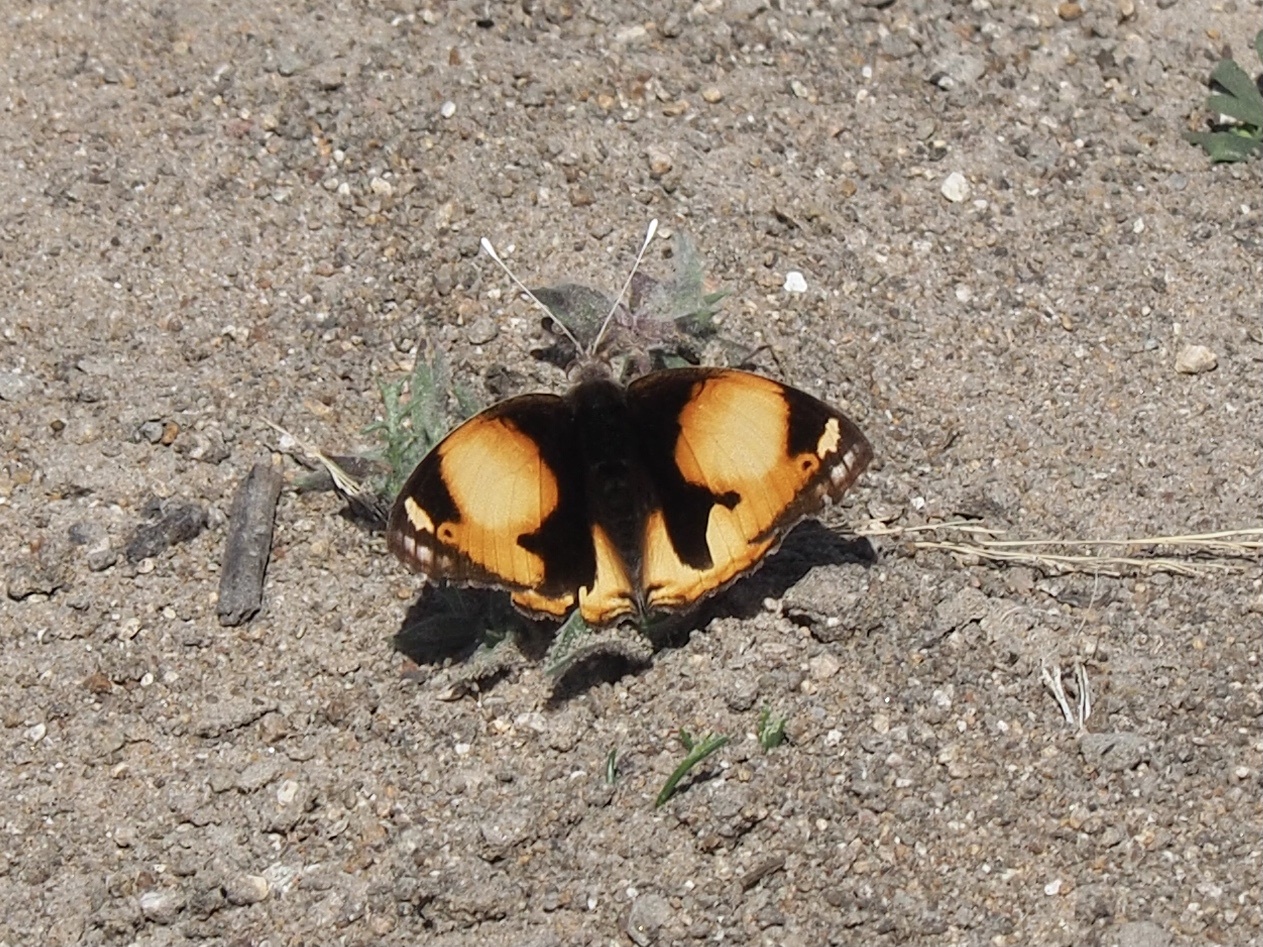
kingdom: Animalia
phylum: Arthropoda
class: Insecta
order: Lepidoptera
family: Nymphalidae
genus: Junonia
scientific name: Junonia hierta
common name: Yellow pansy
